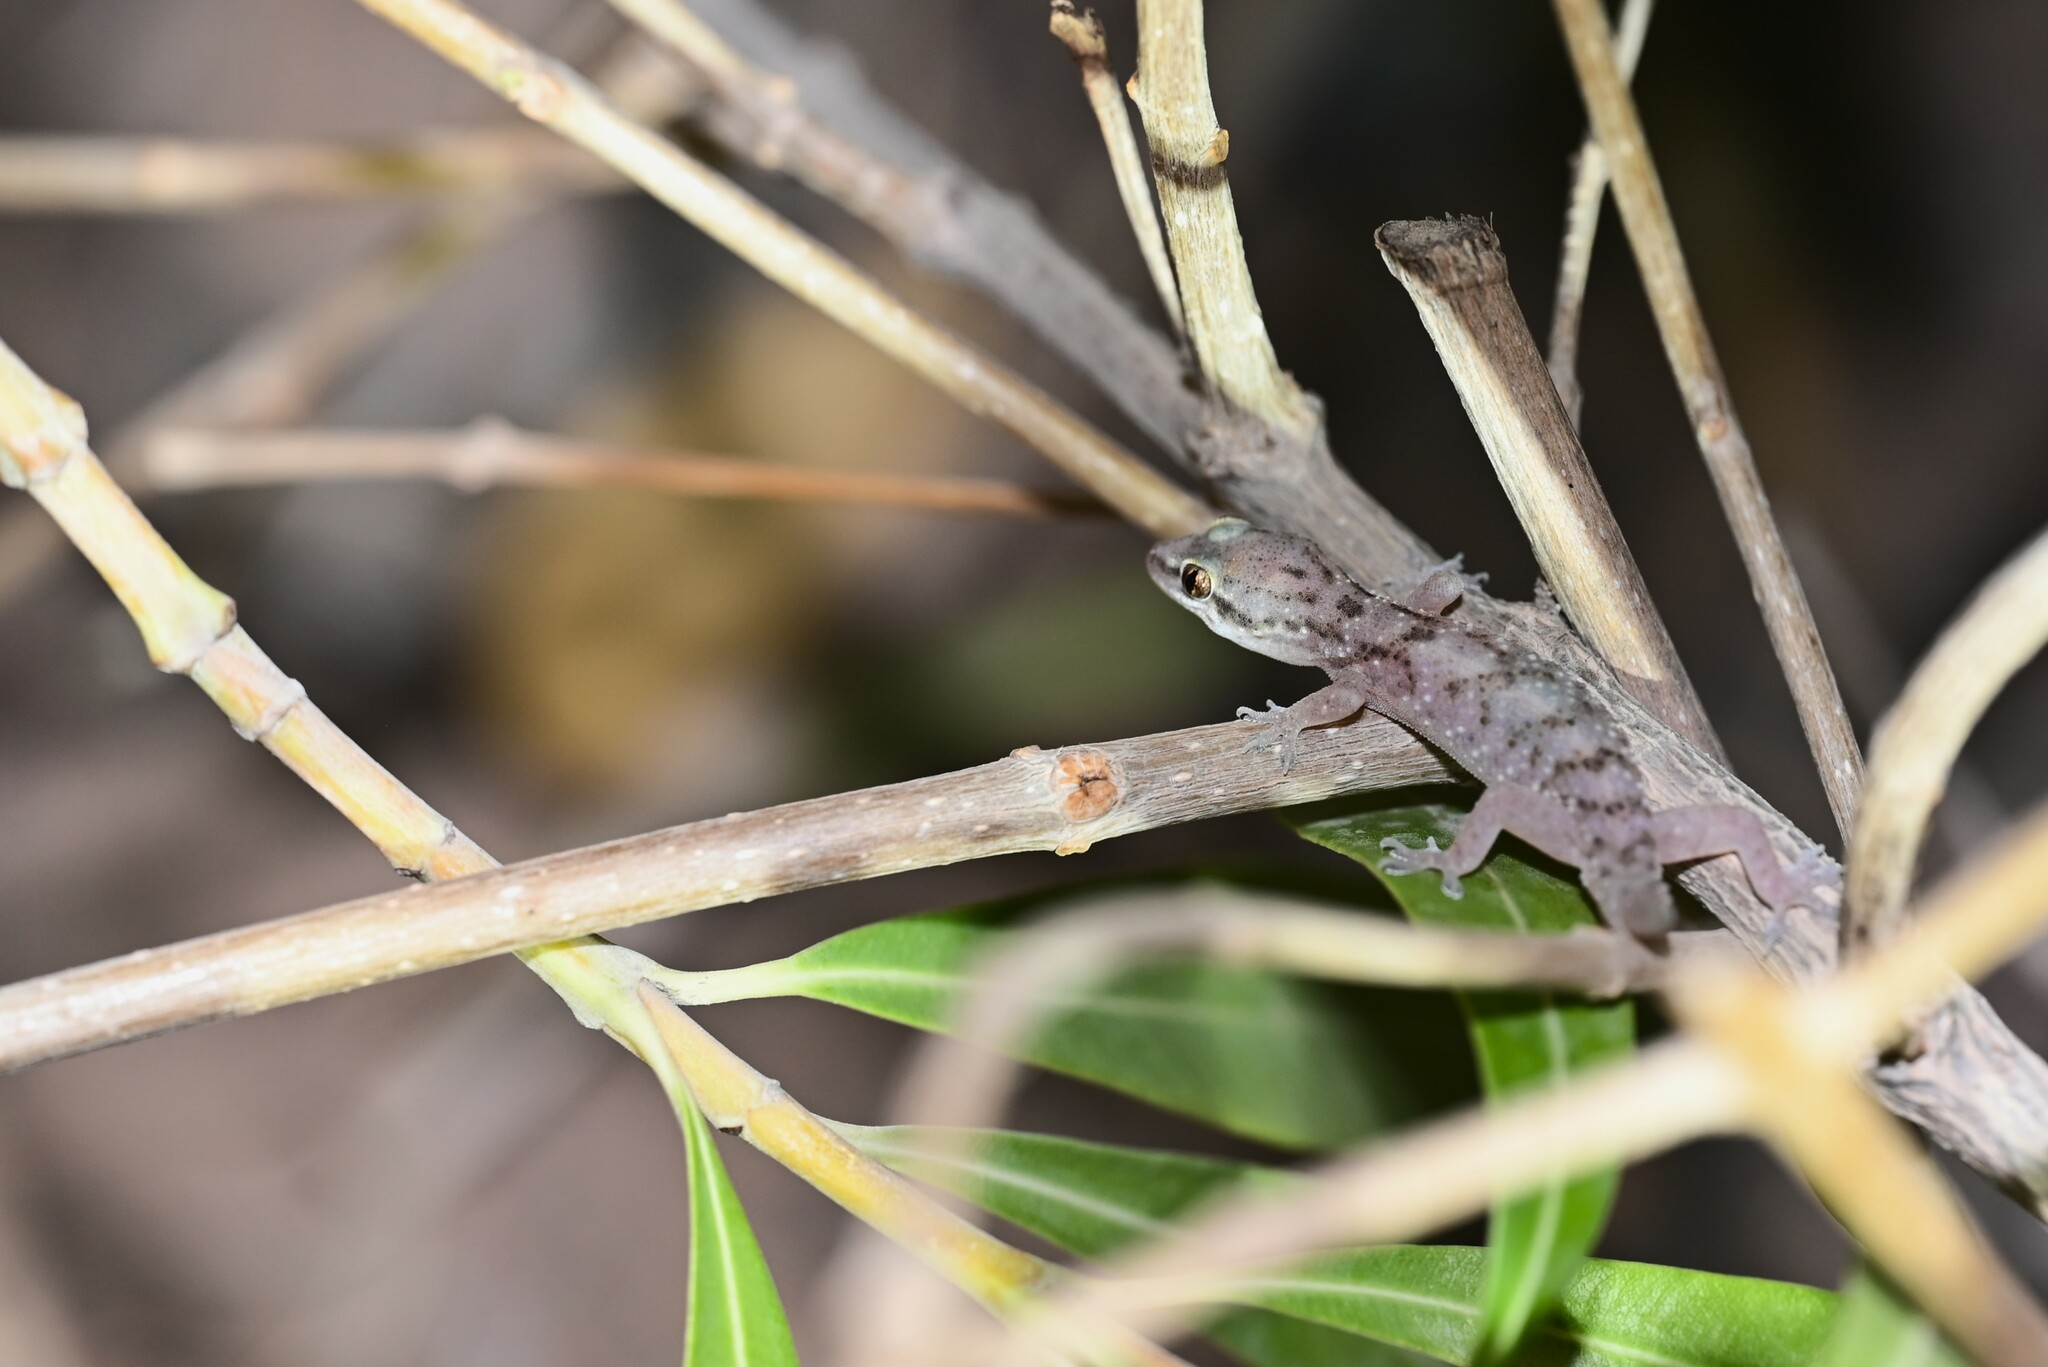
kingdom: Animalia
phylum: Chordata
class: Squamata
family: Gekkonidae
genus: Hemidactylus
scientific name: Hemidactylus robustus
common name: Heyden’s gecko
